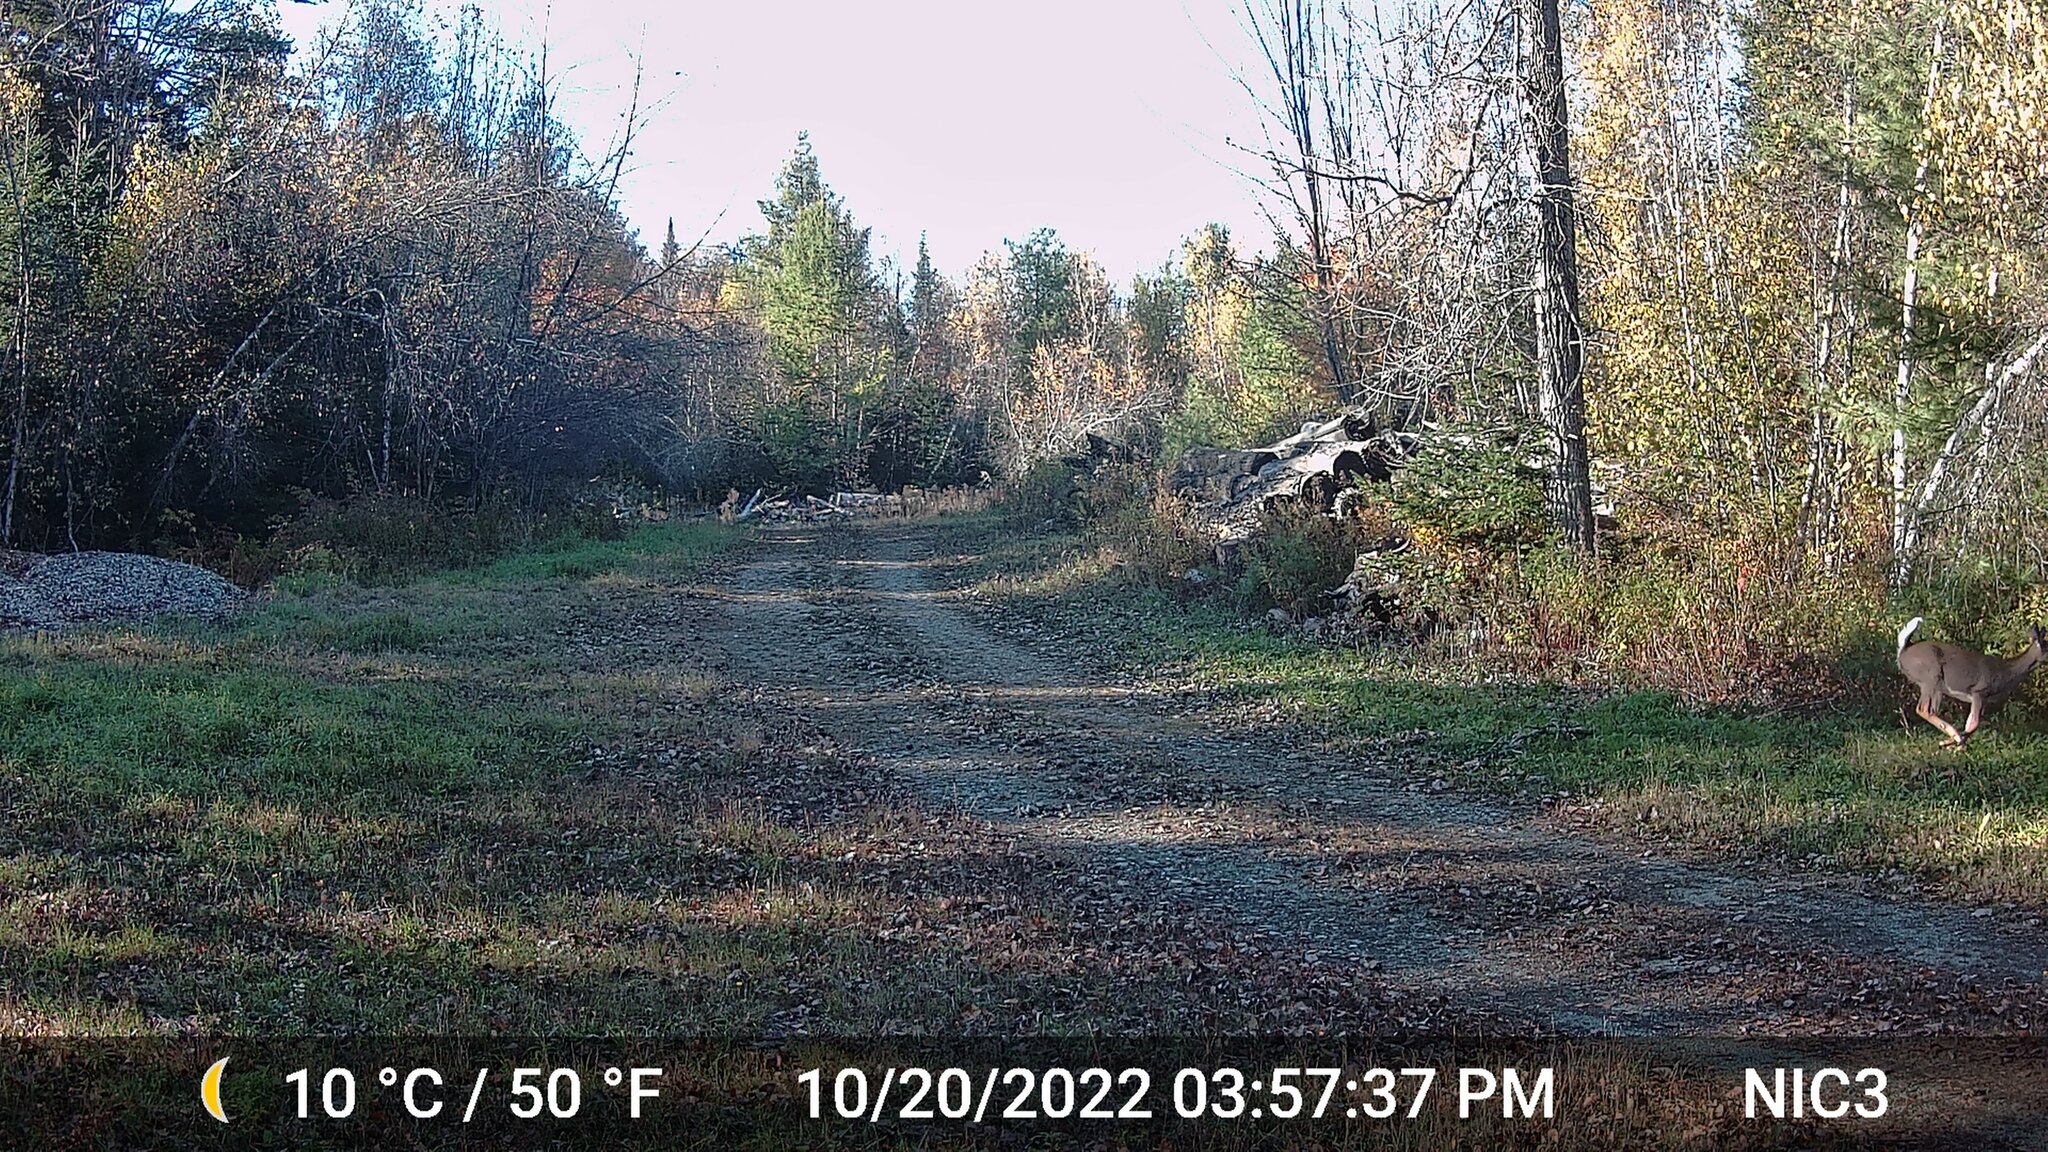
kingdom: Animalia
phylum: Chordata
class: Mammalia
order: Artiodactyla
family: Cervidae
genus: Odocoileus
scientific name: Odocoileus virginianus
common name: White-tailed deer
